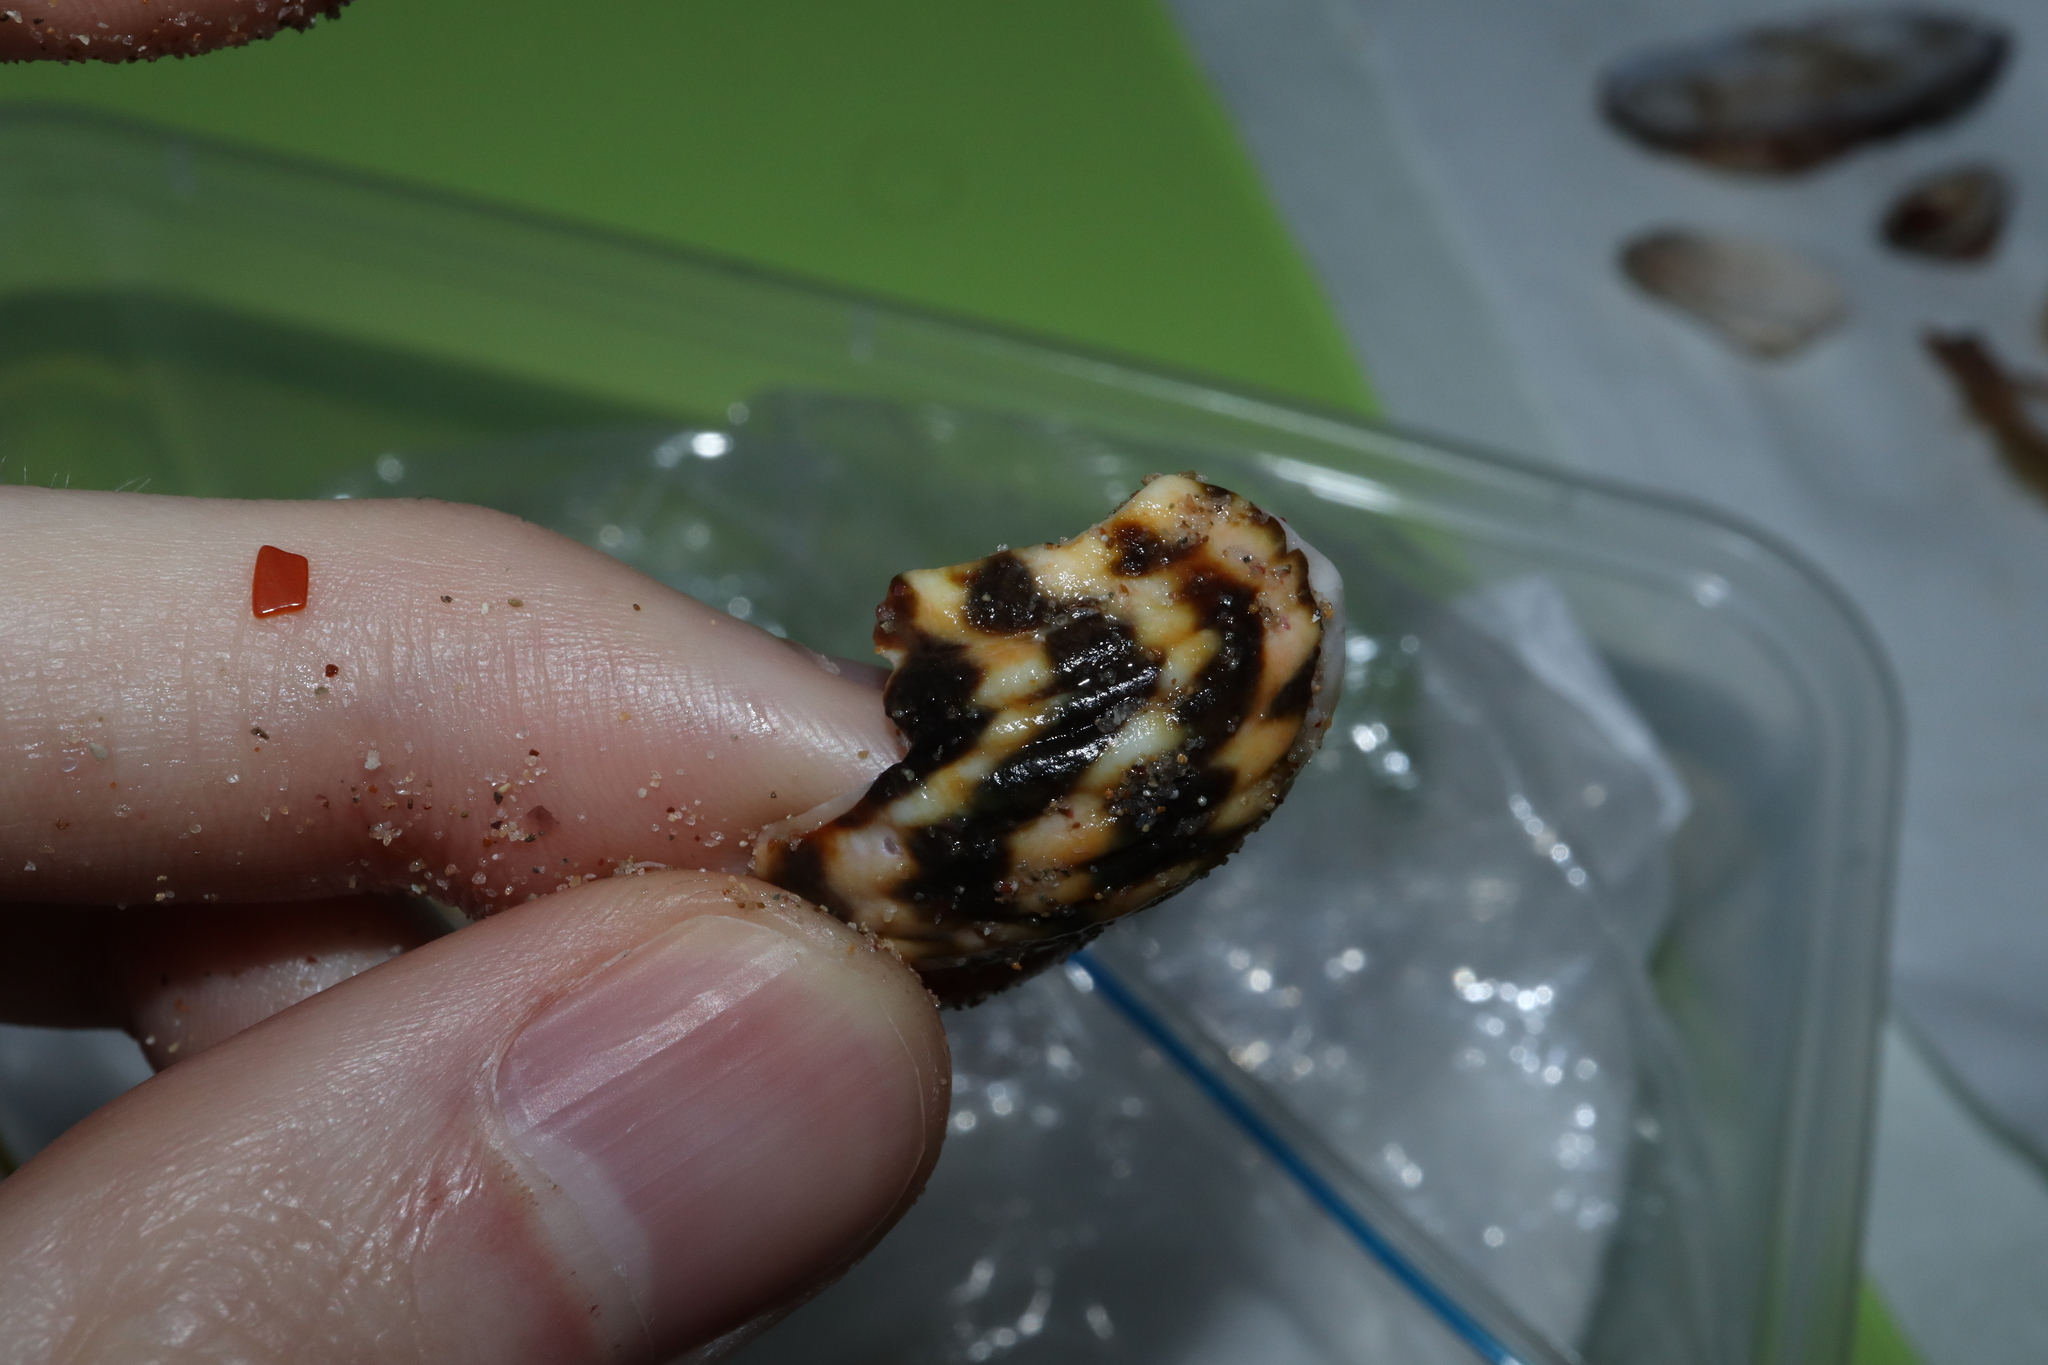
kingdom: Animalia
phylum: Mollusca
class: Gastropoda
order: Trochida
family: Turbinidae
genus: Lunella
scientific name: Lunella undulata
